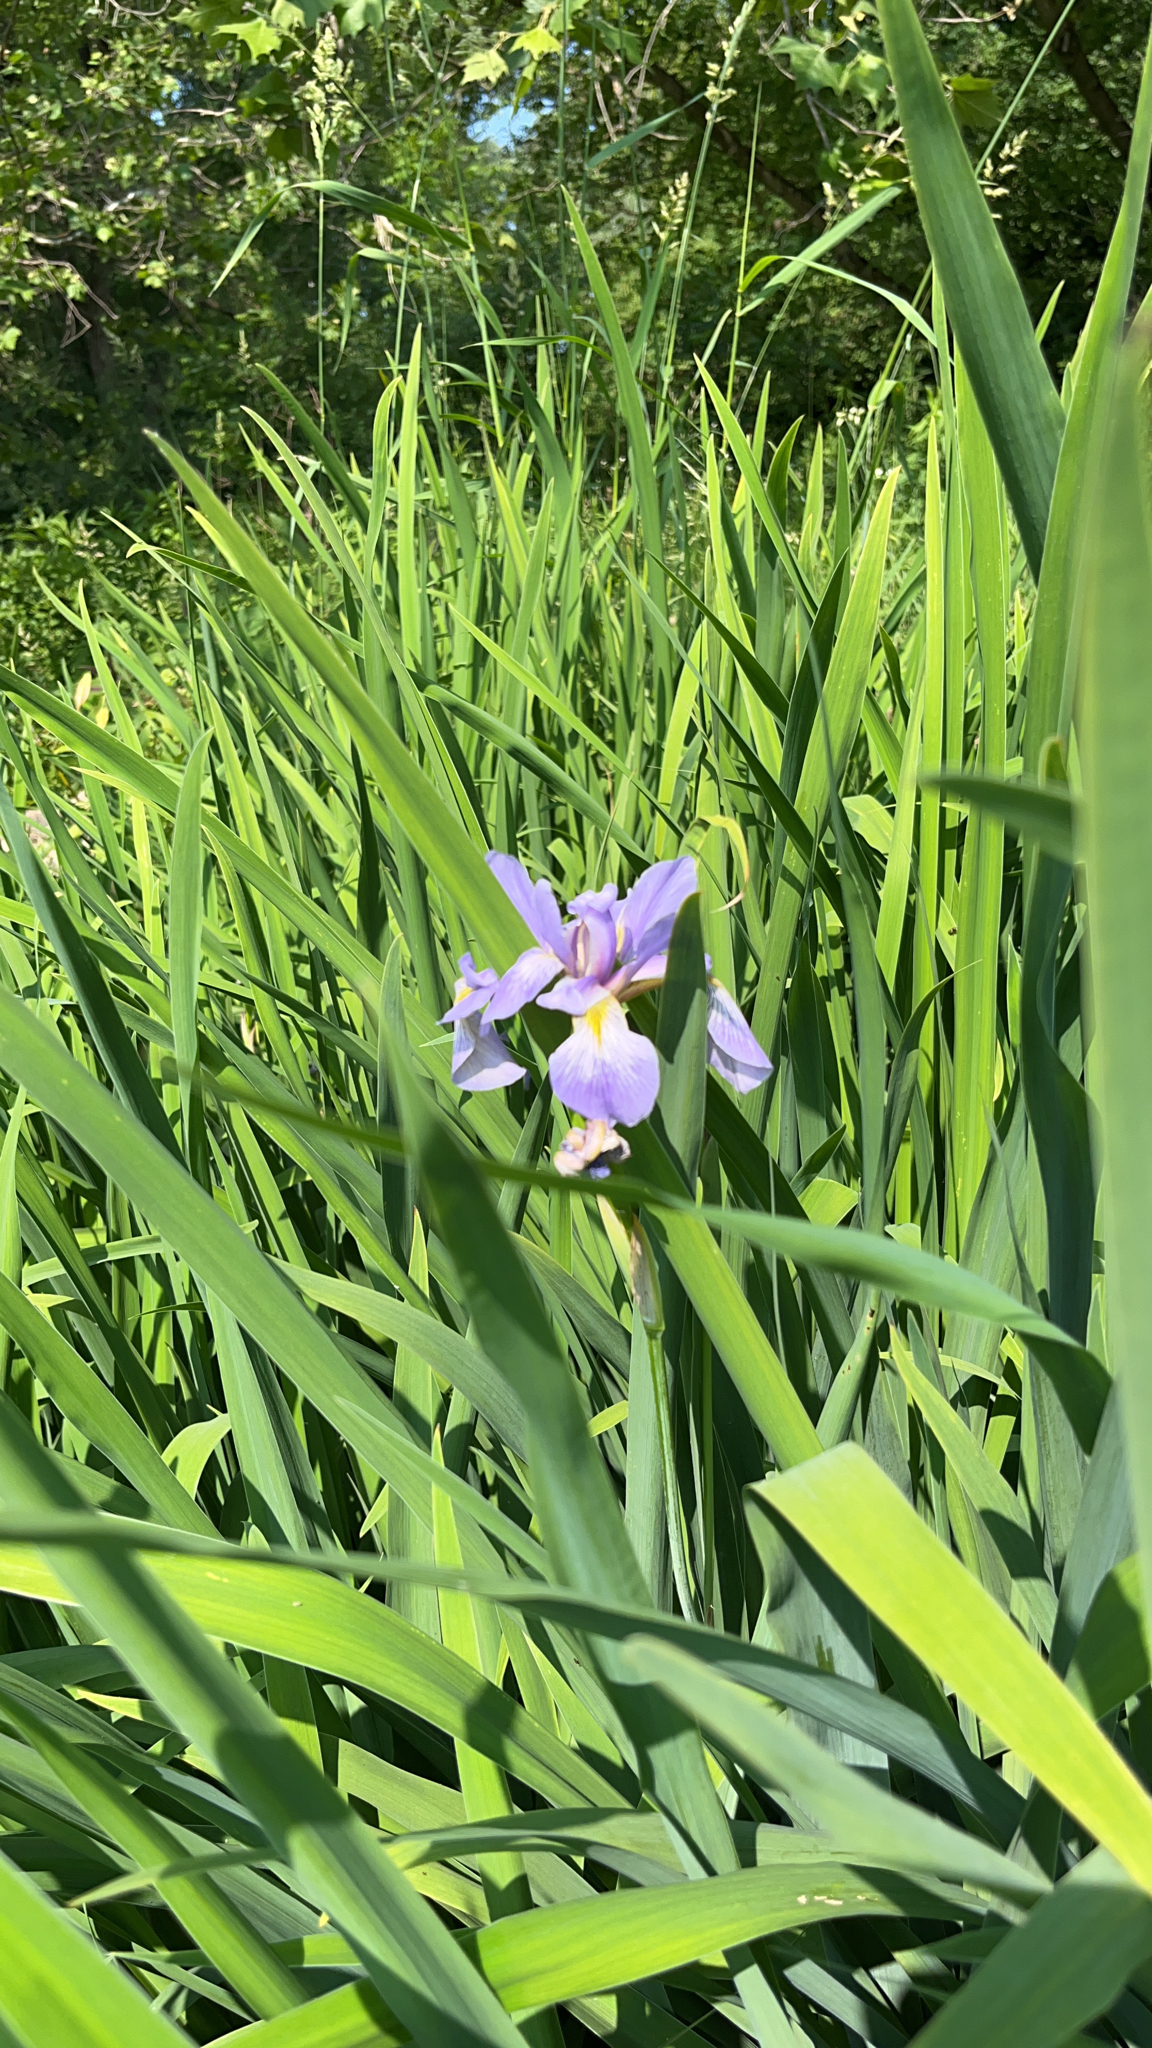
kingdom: Plantae
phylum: Tracheophyta
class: Liliopsida
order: Asparagales
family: Iridaceae
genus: Iris
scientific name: Iris virginica
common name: Southern blue flag
